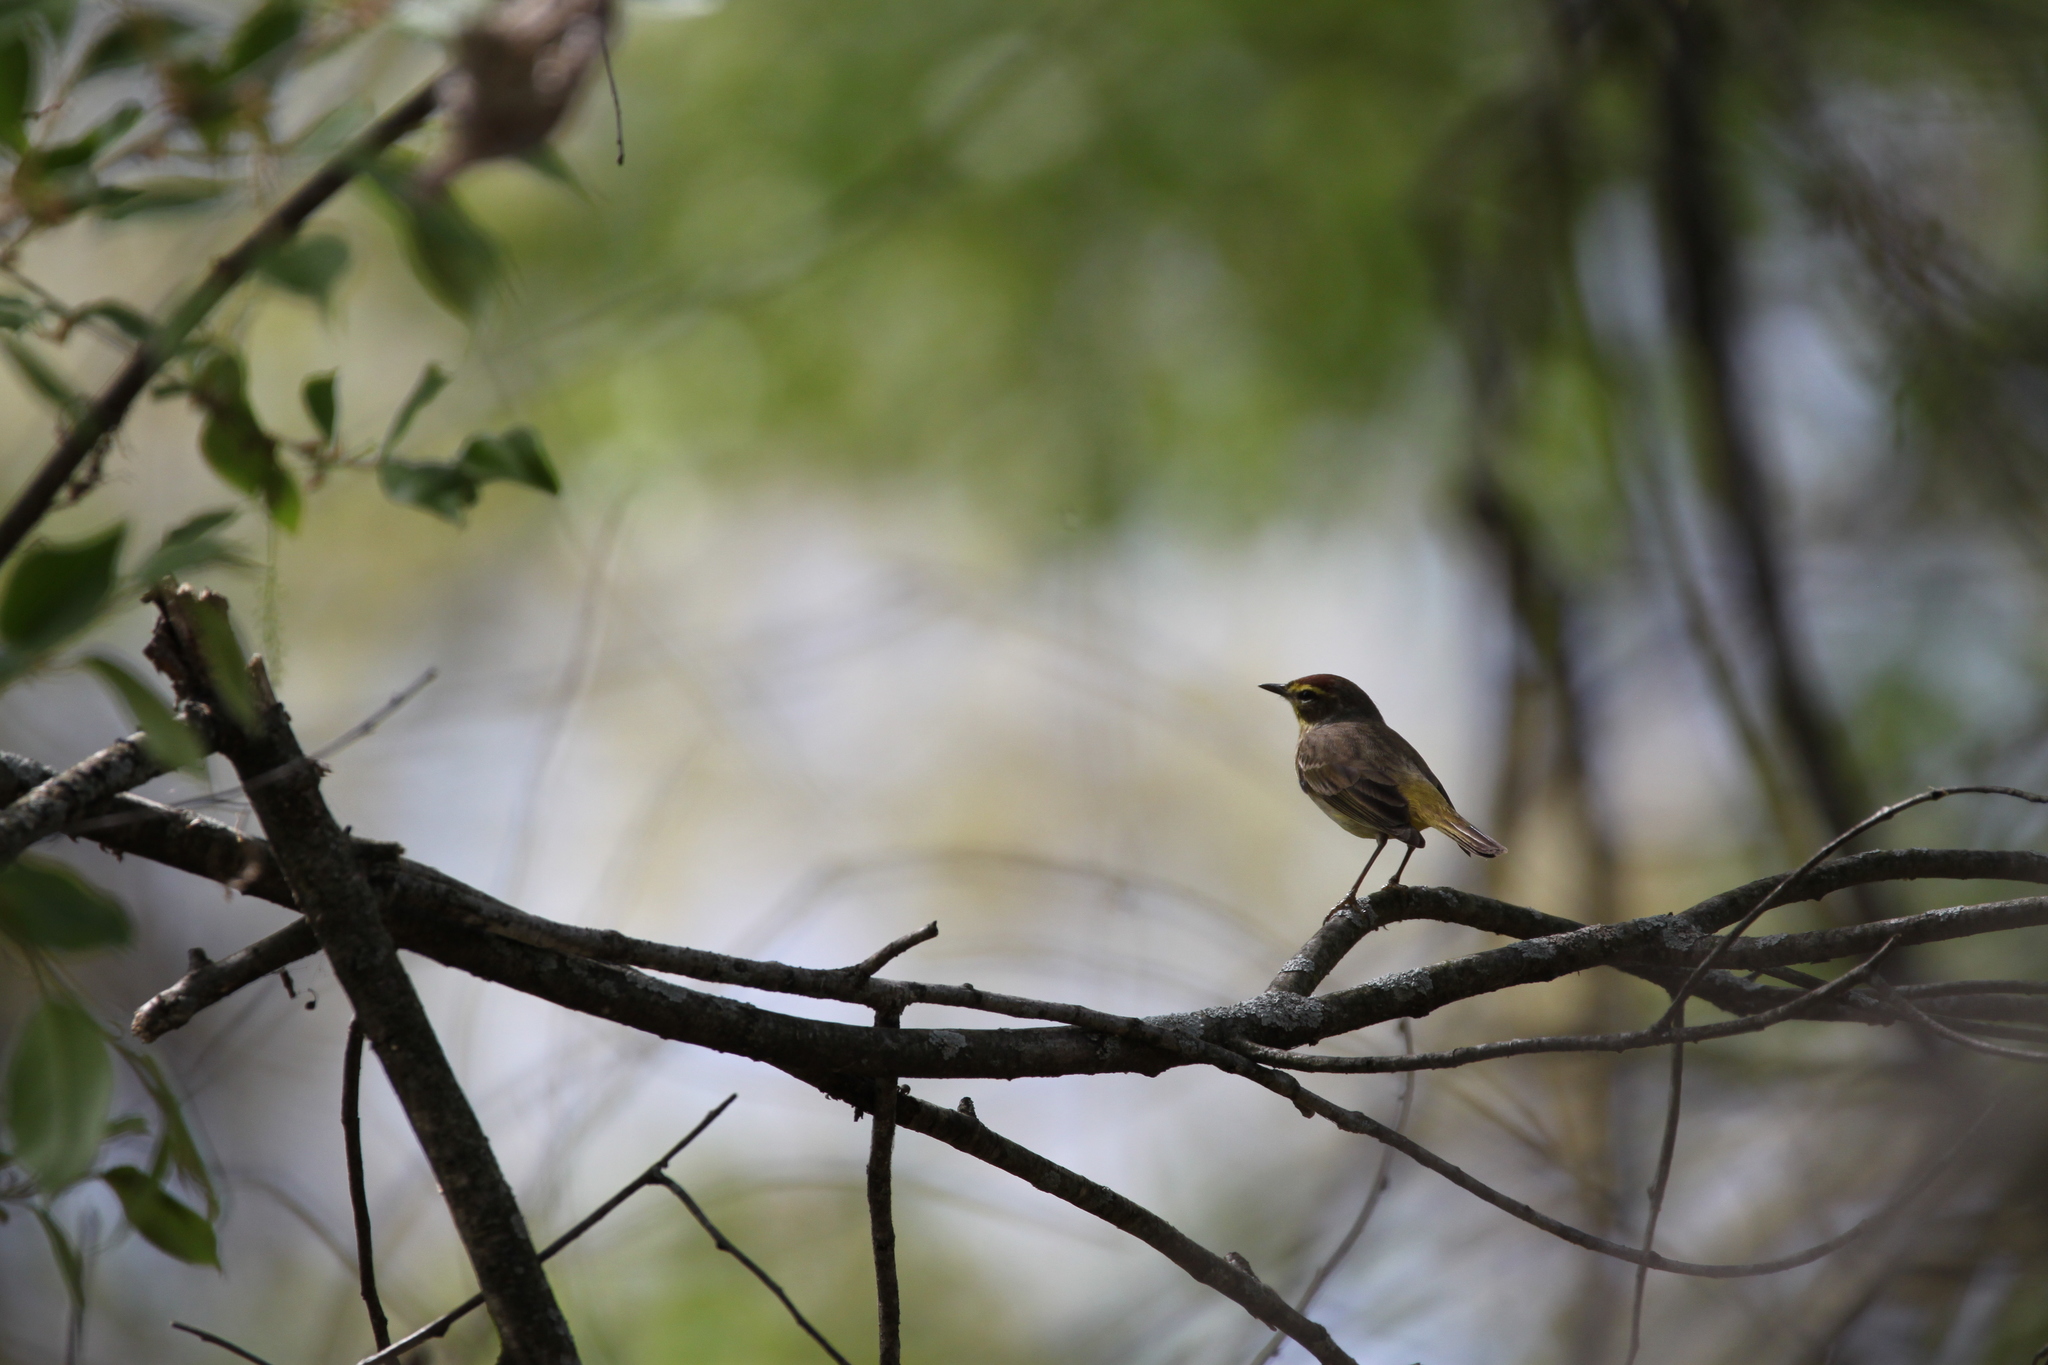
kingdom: Animalia
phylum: Chordata
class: Aves
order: Passeriformes
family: Parulidae
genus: Setophaga
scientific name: Setophaga palmarum
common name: Palm warbler
